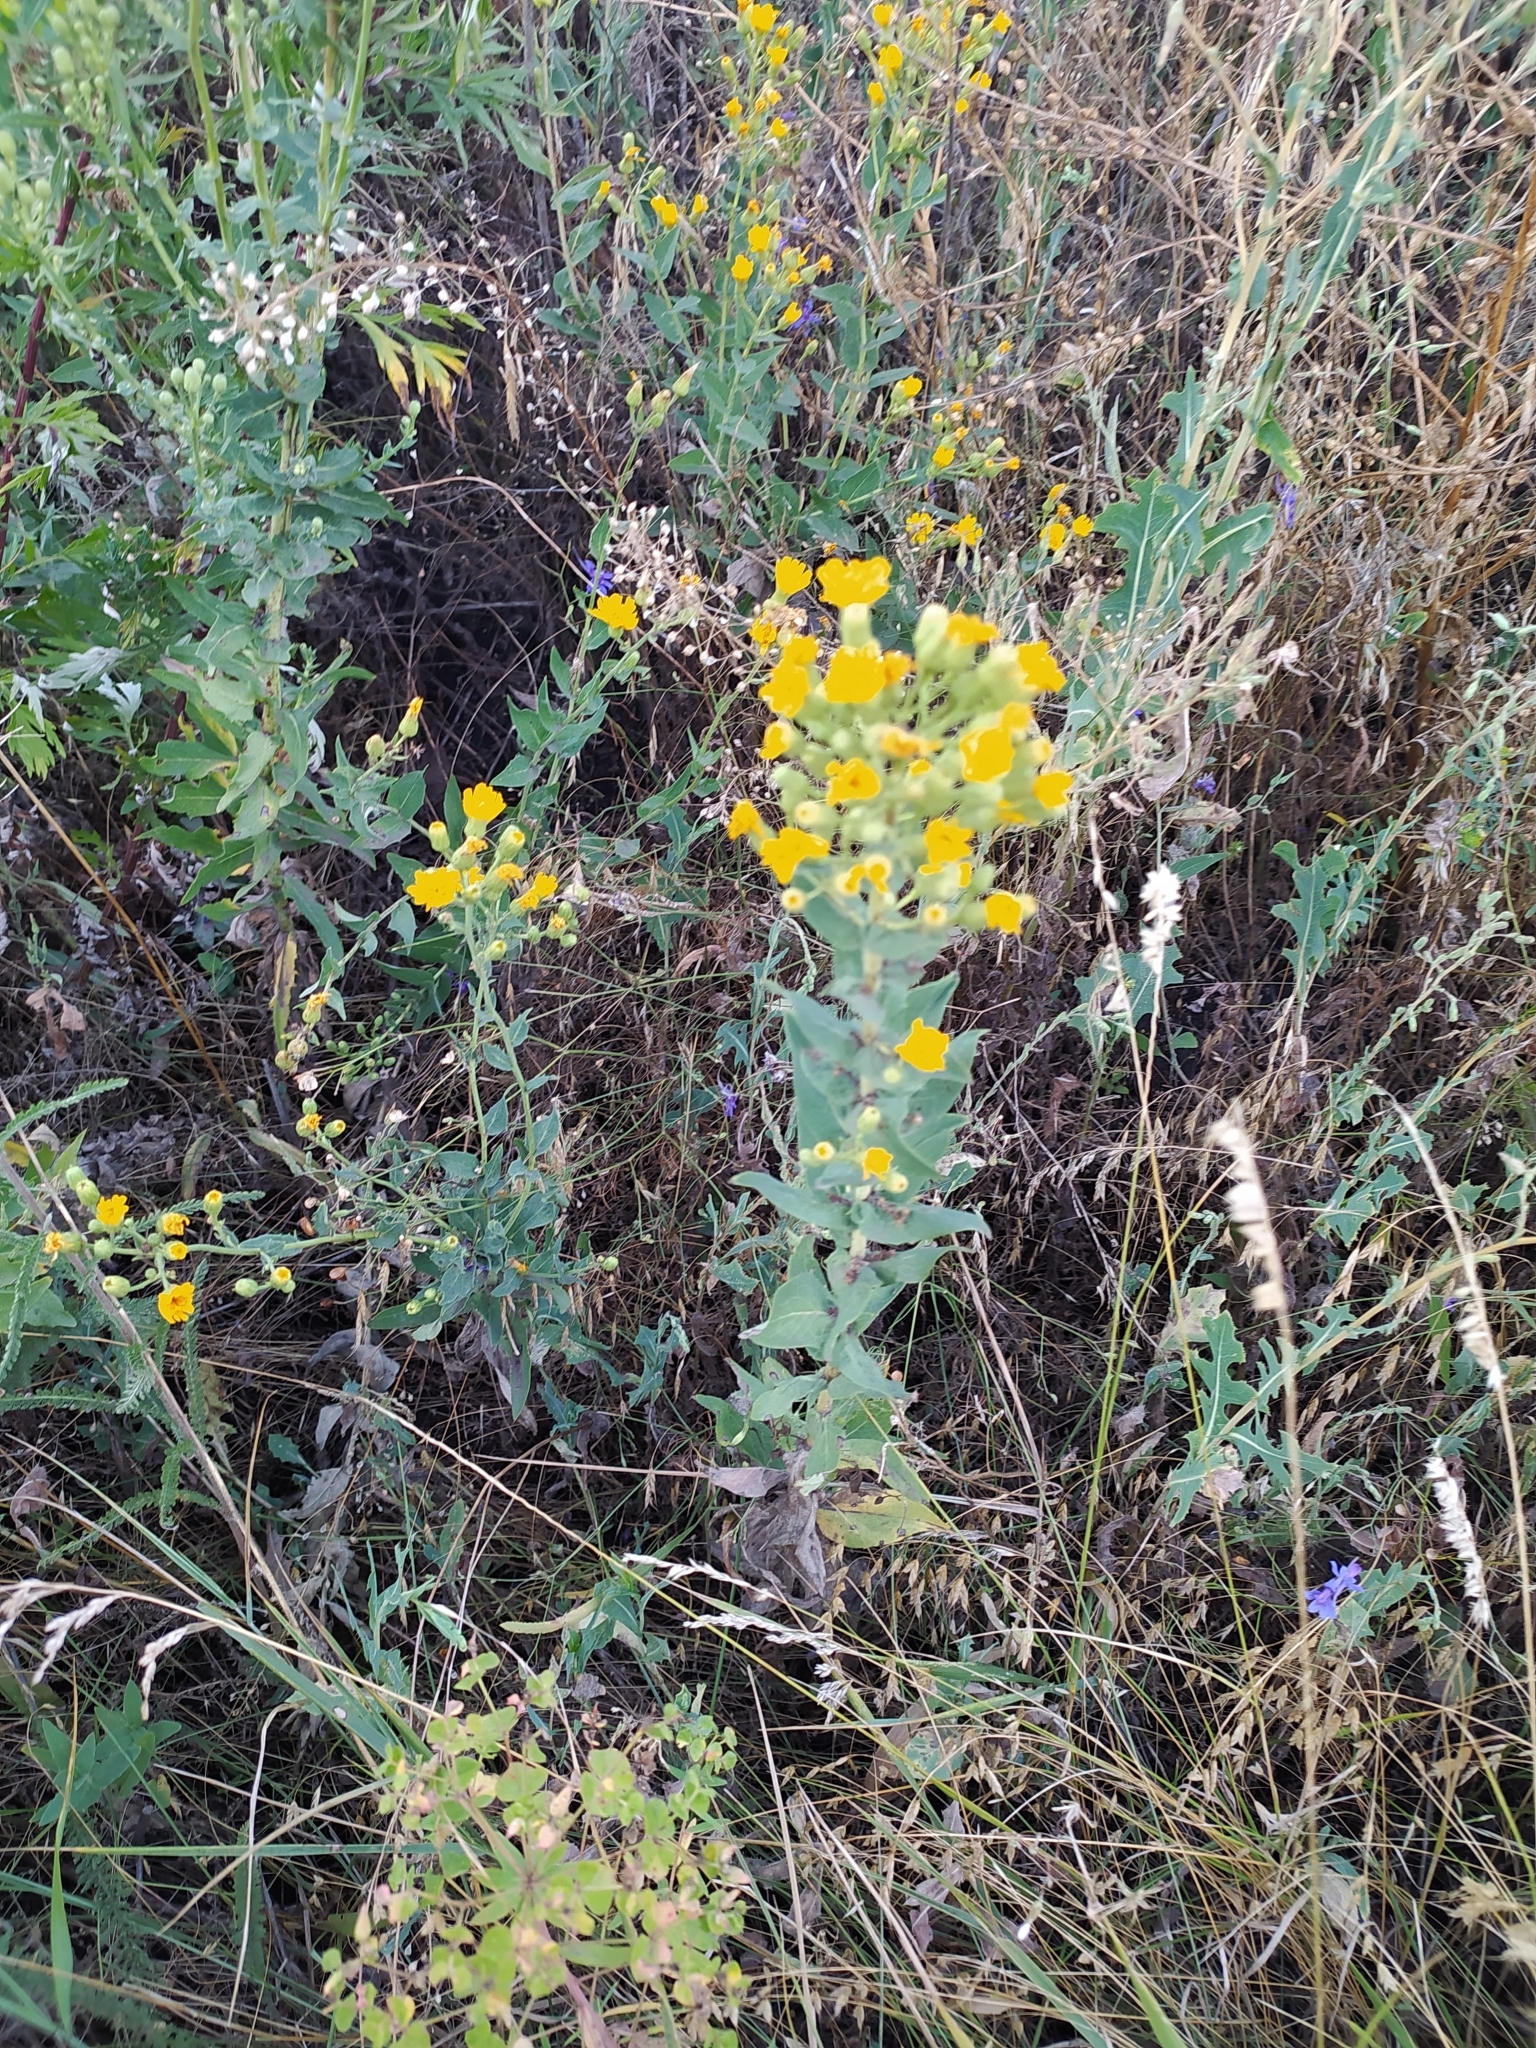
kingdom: Plantae
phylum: Tracheophyta
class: Magnoliopsida
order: Asterales
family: Asteraceae
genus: Hieracium
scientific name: Hieracium virosum
